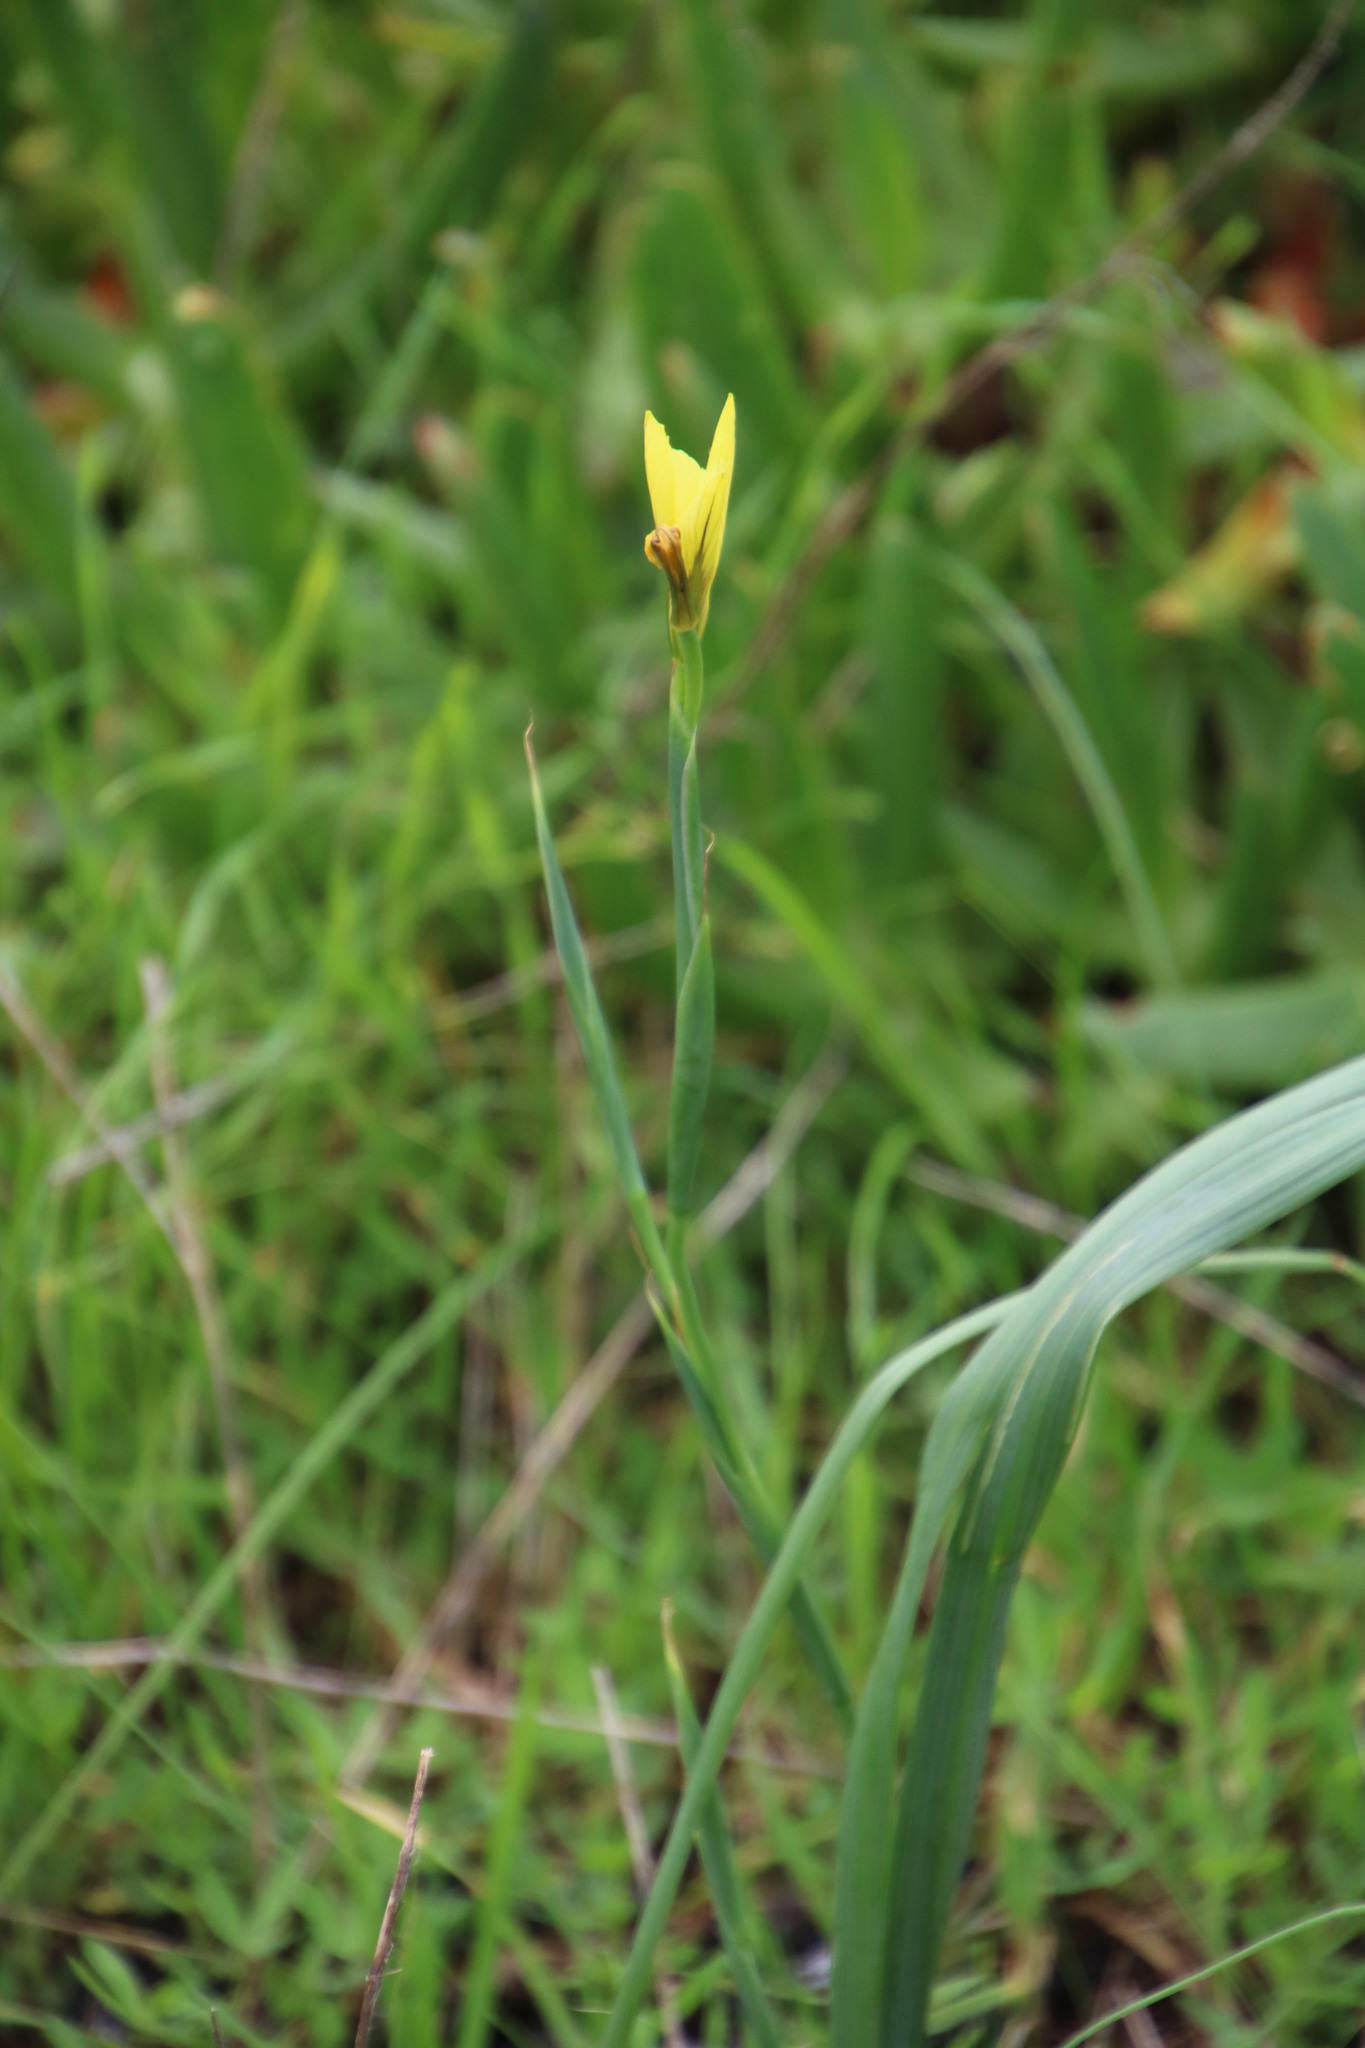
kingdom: Plantae
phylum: Tracheophyta
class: Liliopsida
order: Asparagales
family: Iridaceae
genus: Moraea
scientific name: Moraea collina
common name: Cape-tulip
